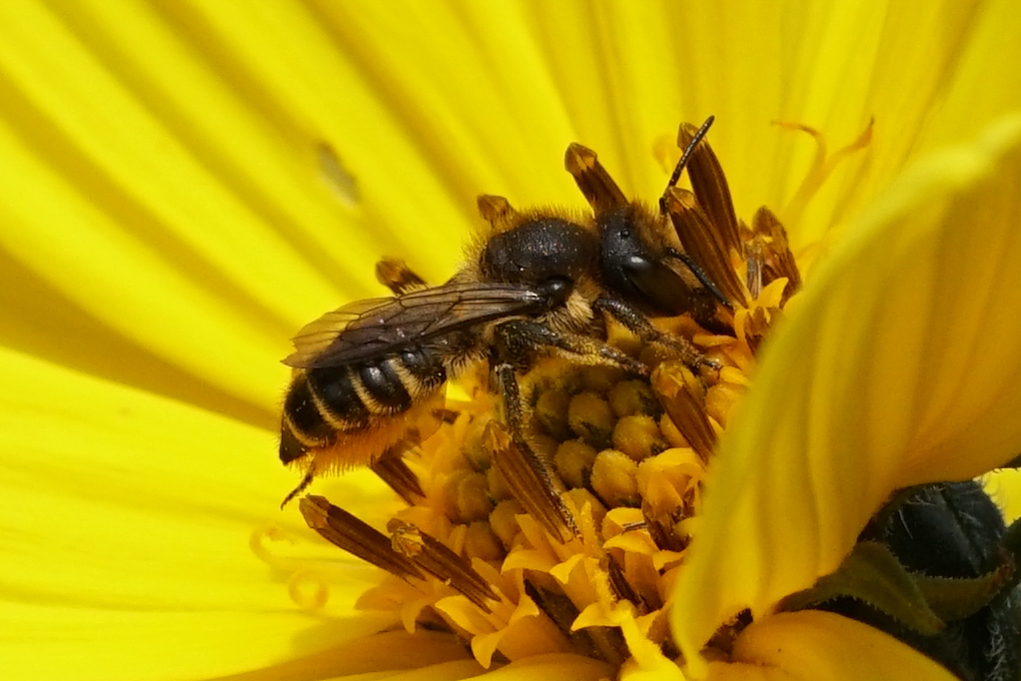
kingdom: Animalia
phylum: Arthropoda
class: Insecta
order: Hymenoptera
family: Megachilidae
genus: Megachile
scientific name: Megachile centuncularis
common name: Patchwork leafcutter bee
